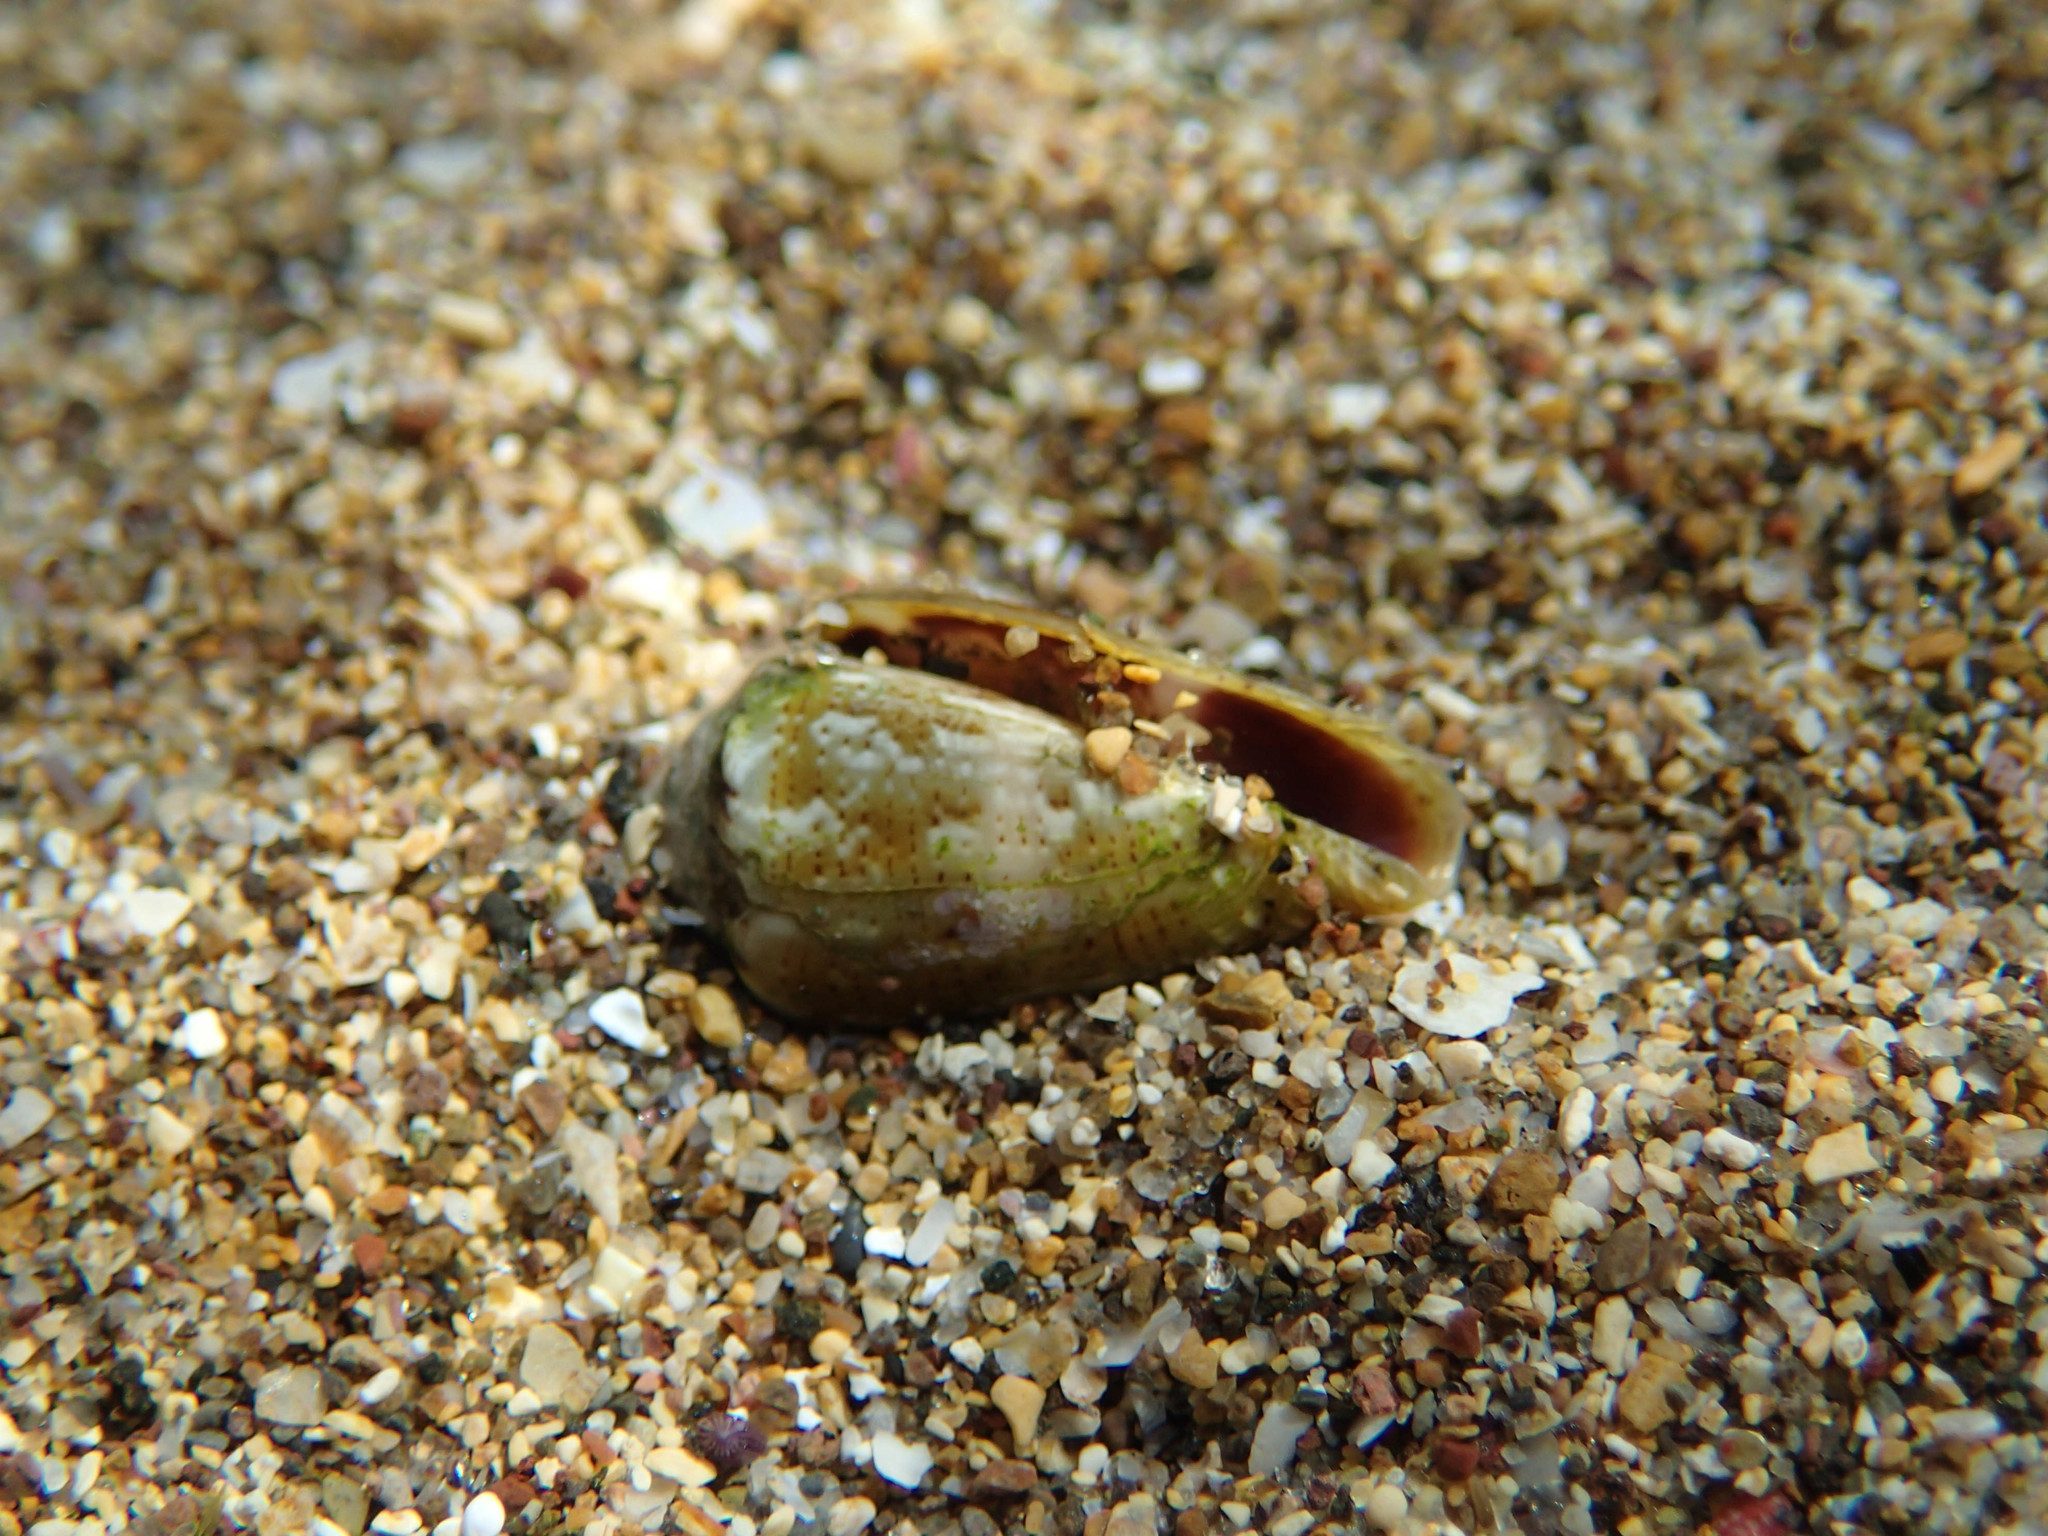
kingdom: Animalia
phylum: Mollusca
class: Gastropoda
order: Neogastropoda
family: Conidae
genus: Conus
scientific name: Conus ventricosus
